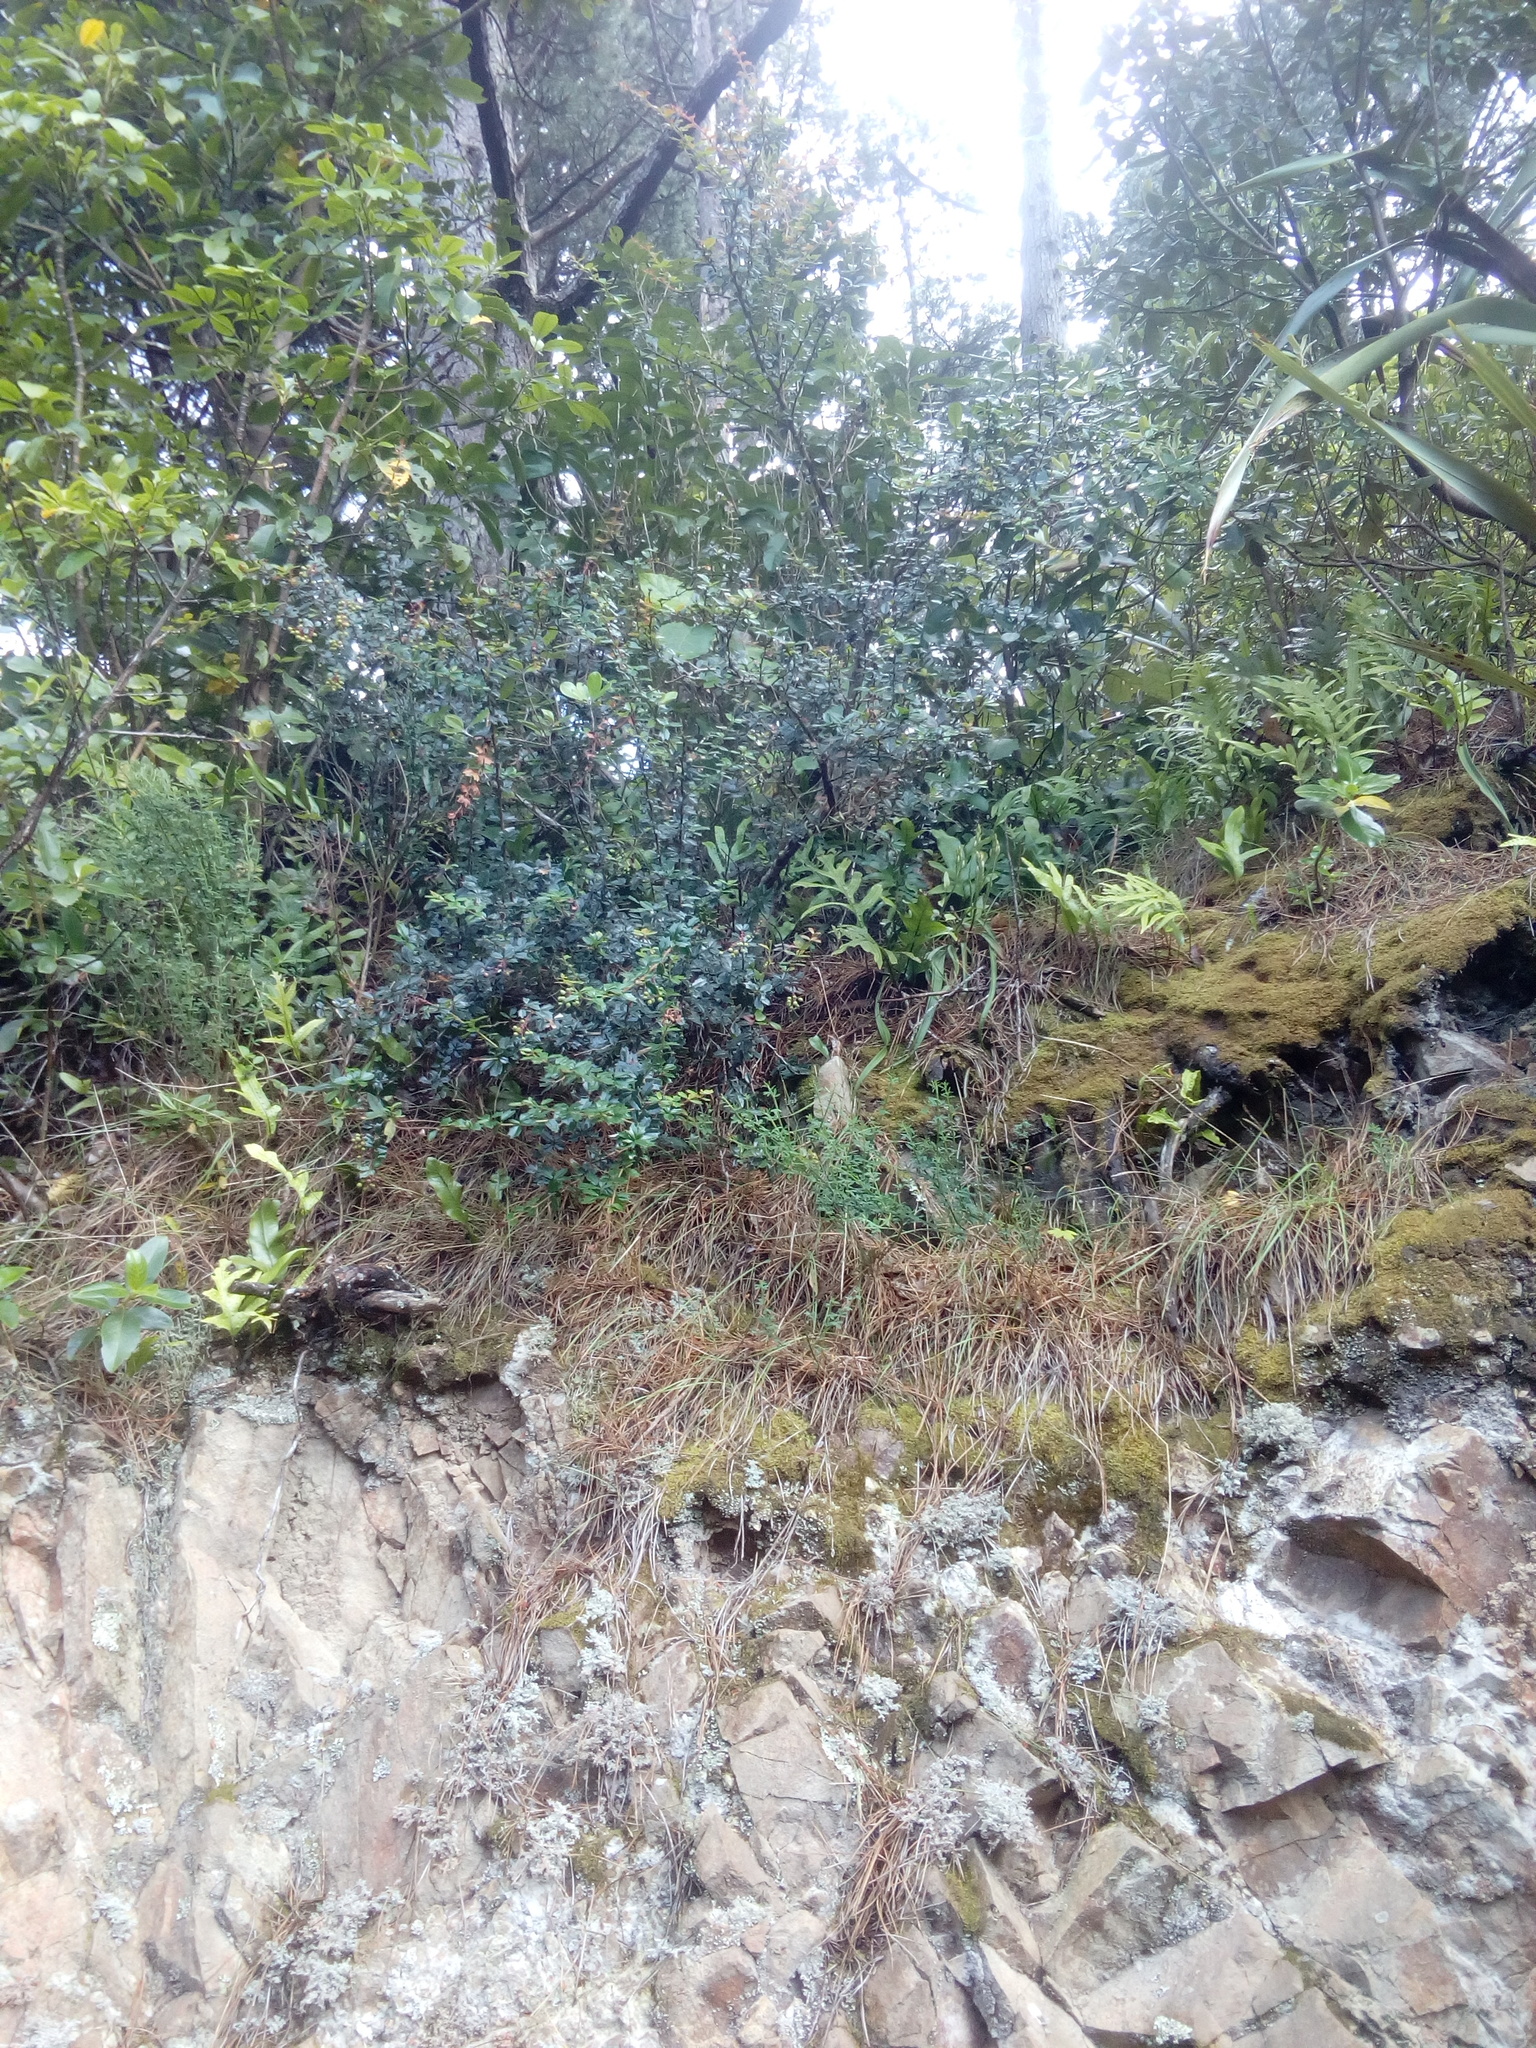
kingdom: Plantae
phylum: Tracheophyta
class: Magnoliopsida
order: Ranunculales
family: Berberidaceae
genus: Berberis
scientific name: Berberis darwinii
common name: Darwin's barberry
